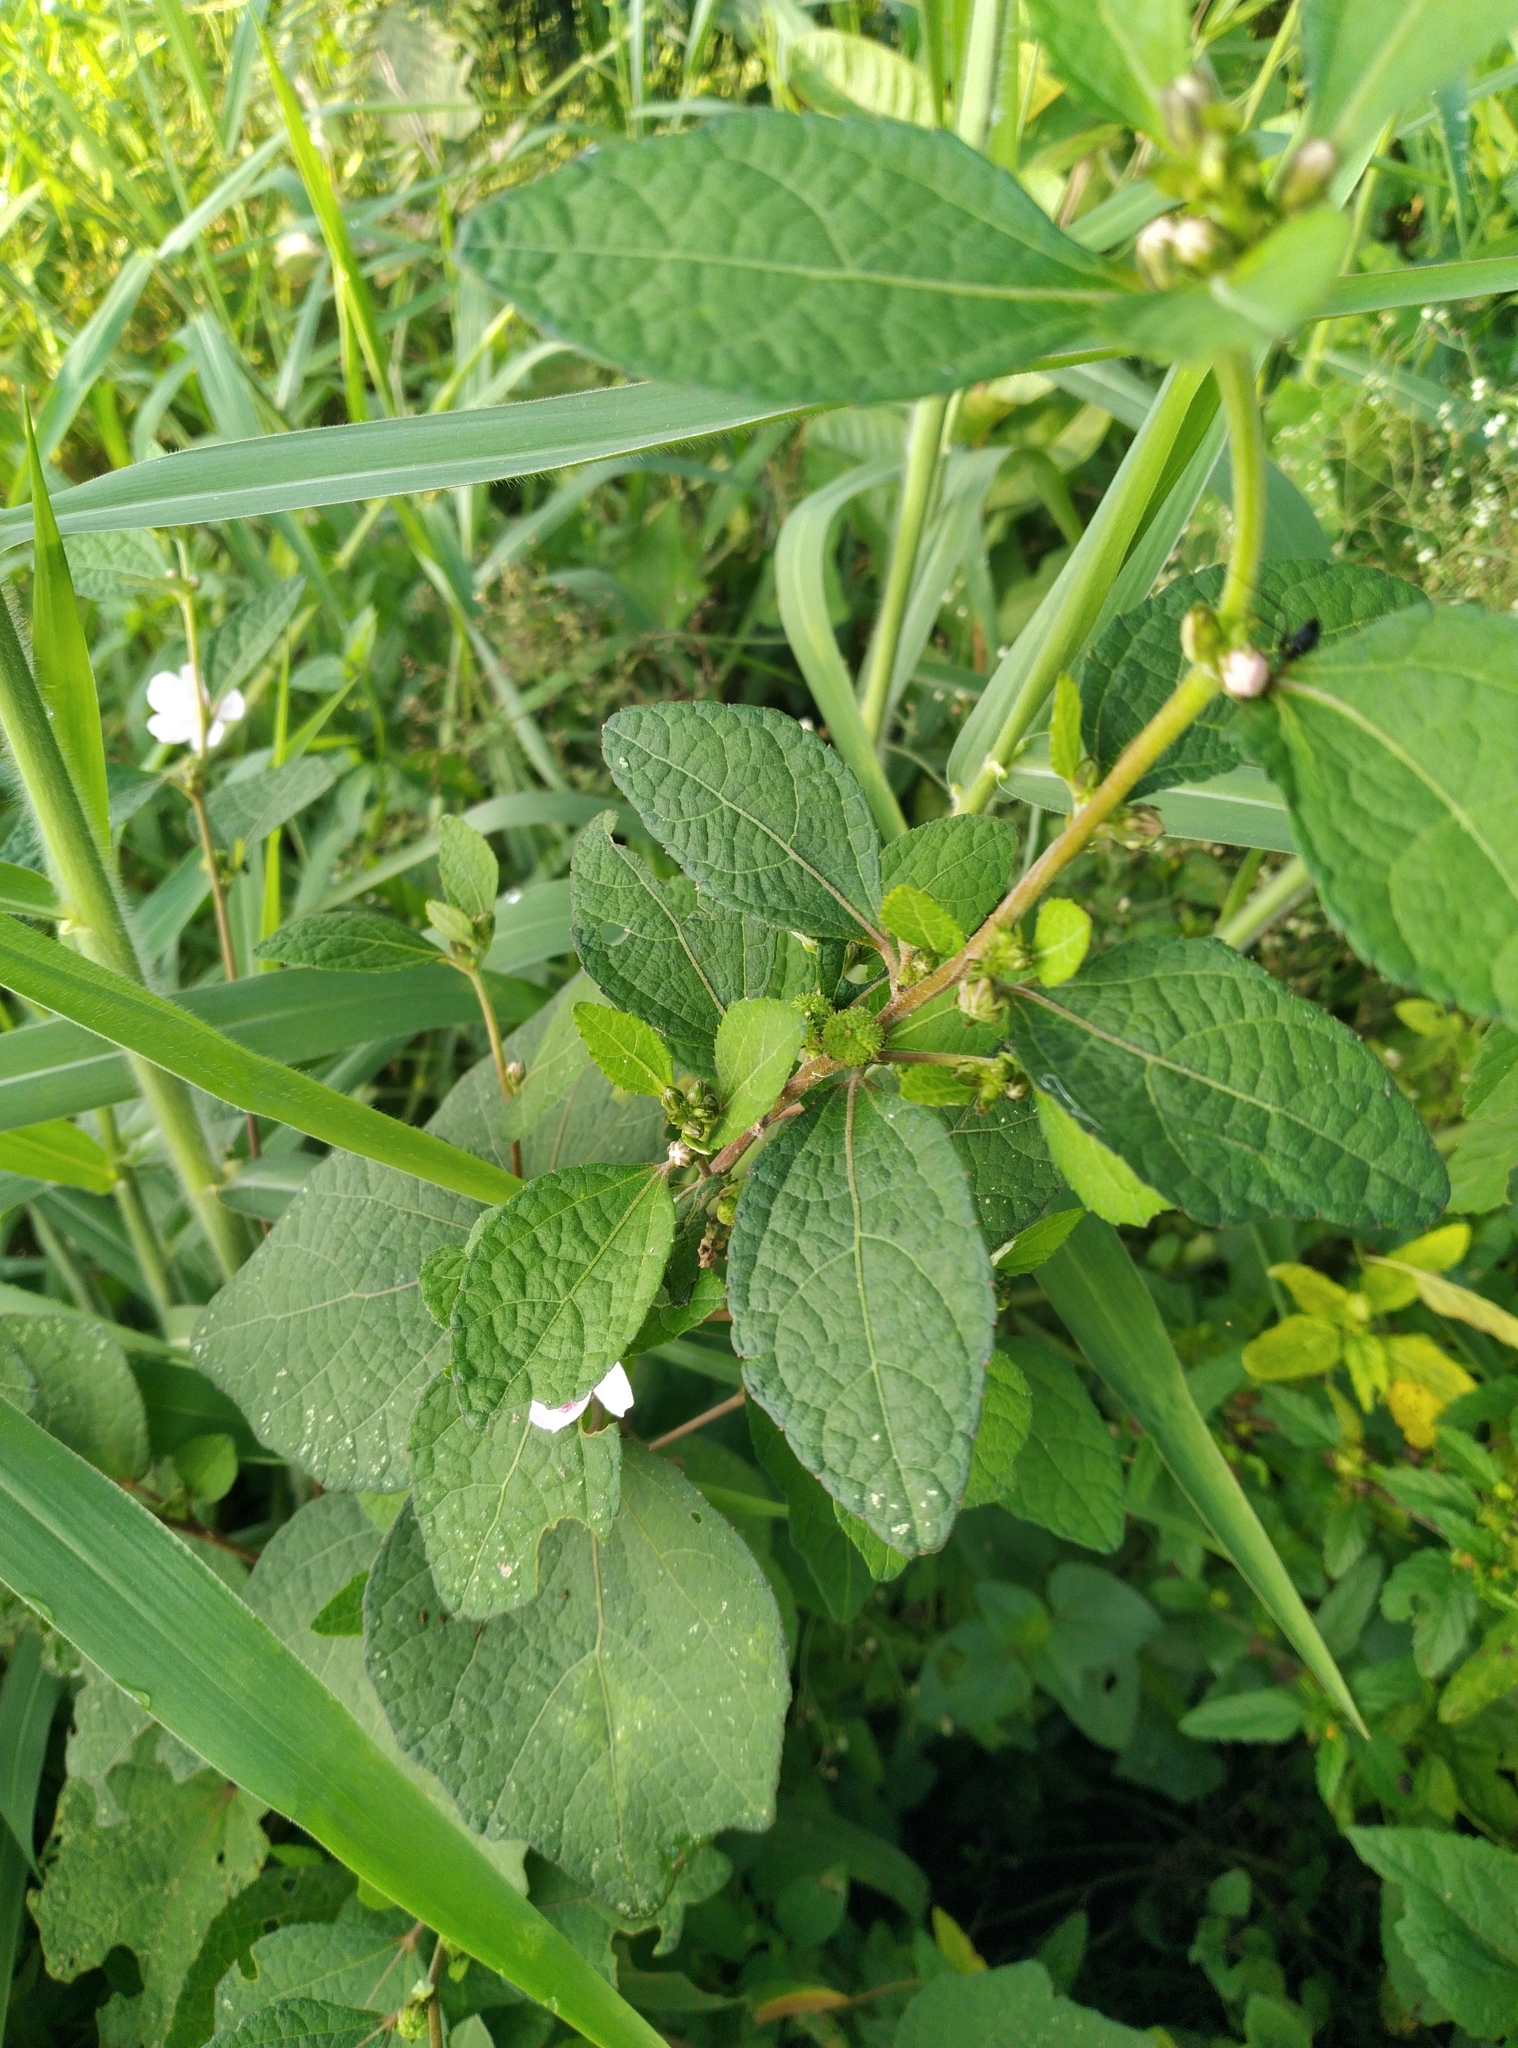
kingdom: Plantae
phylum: Tracheophyta
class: Magnoliopsida
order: Malvales
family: Malvaceae
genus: Urena
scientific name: Urena lobata
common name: Caesarweed
